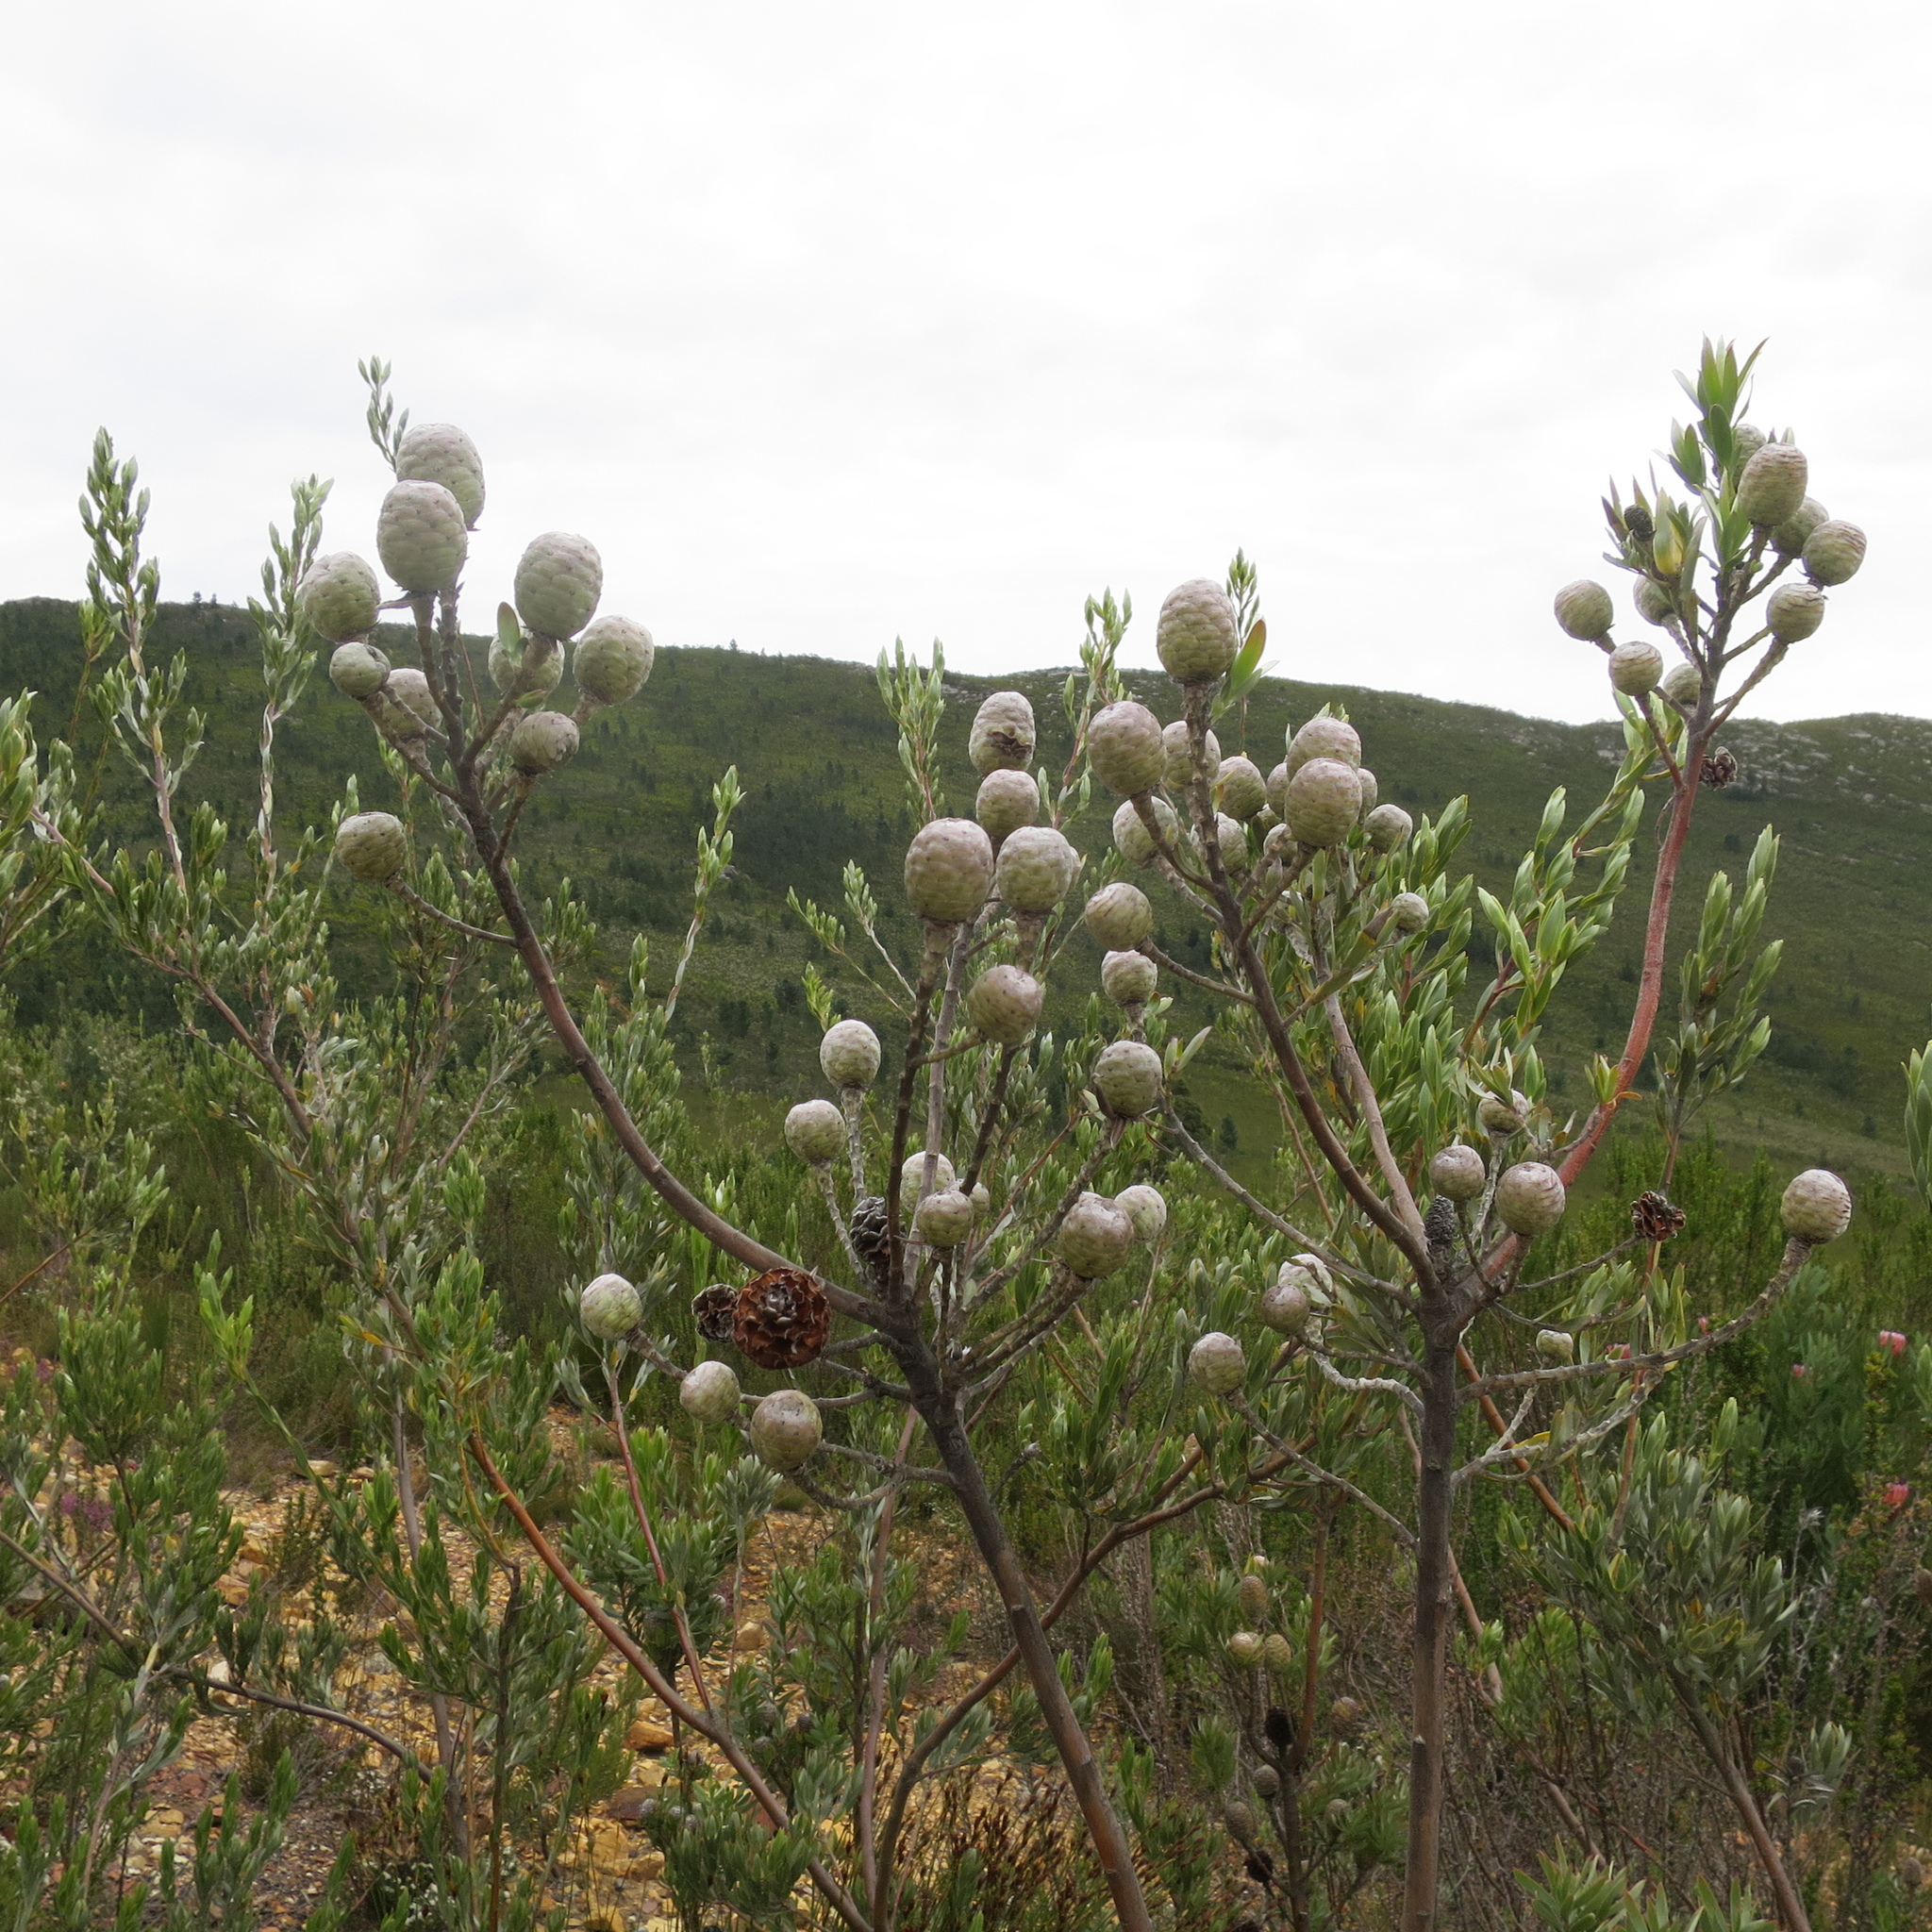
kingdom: Plantae
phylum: Tracheophyta
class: Magnoliopsida
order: Proteales
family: Proteaceae
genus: Leucadendron
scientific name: Leucadendron uliginosum
